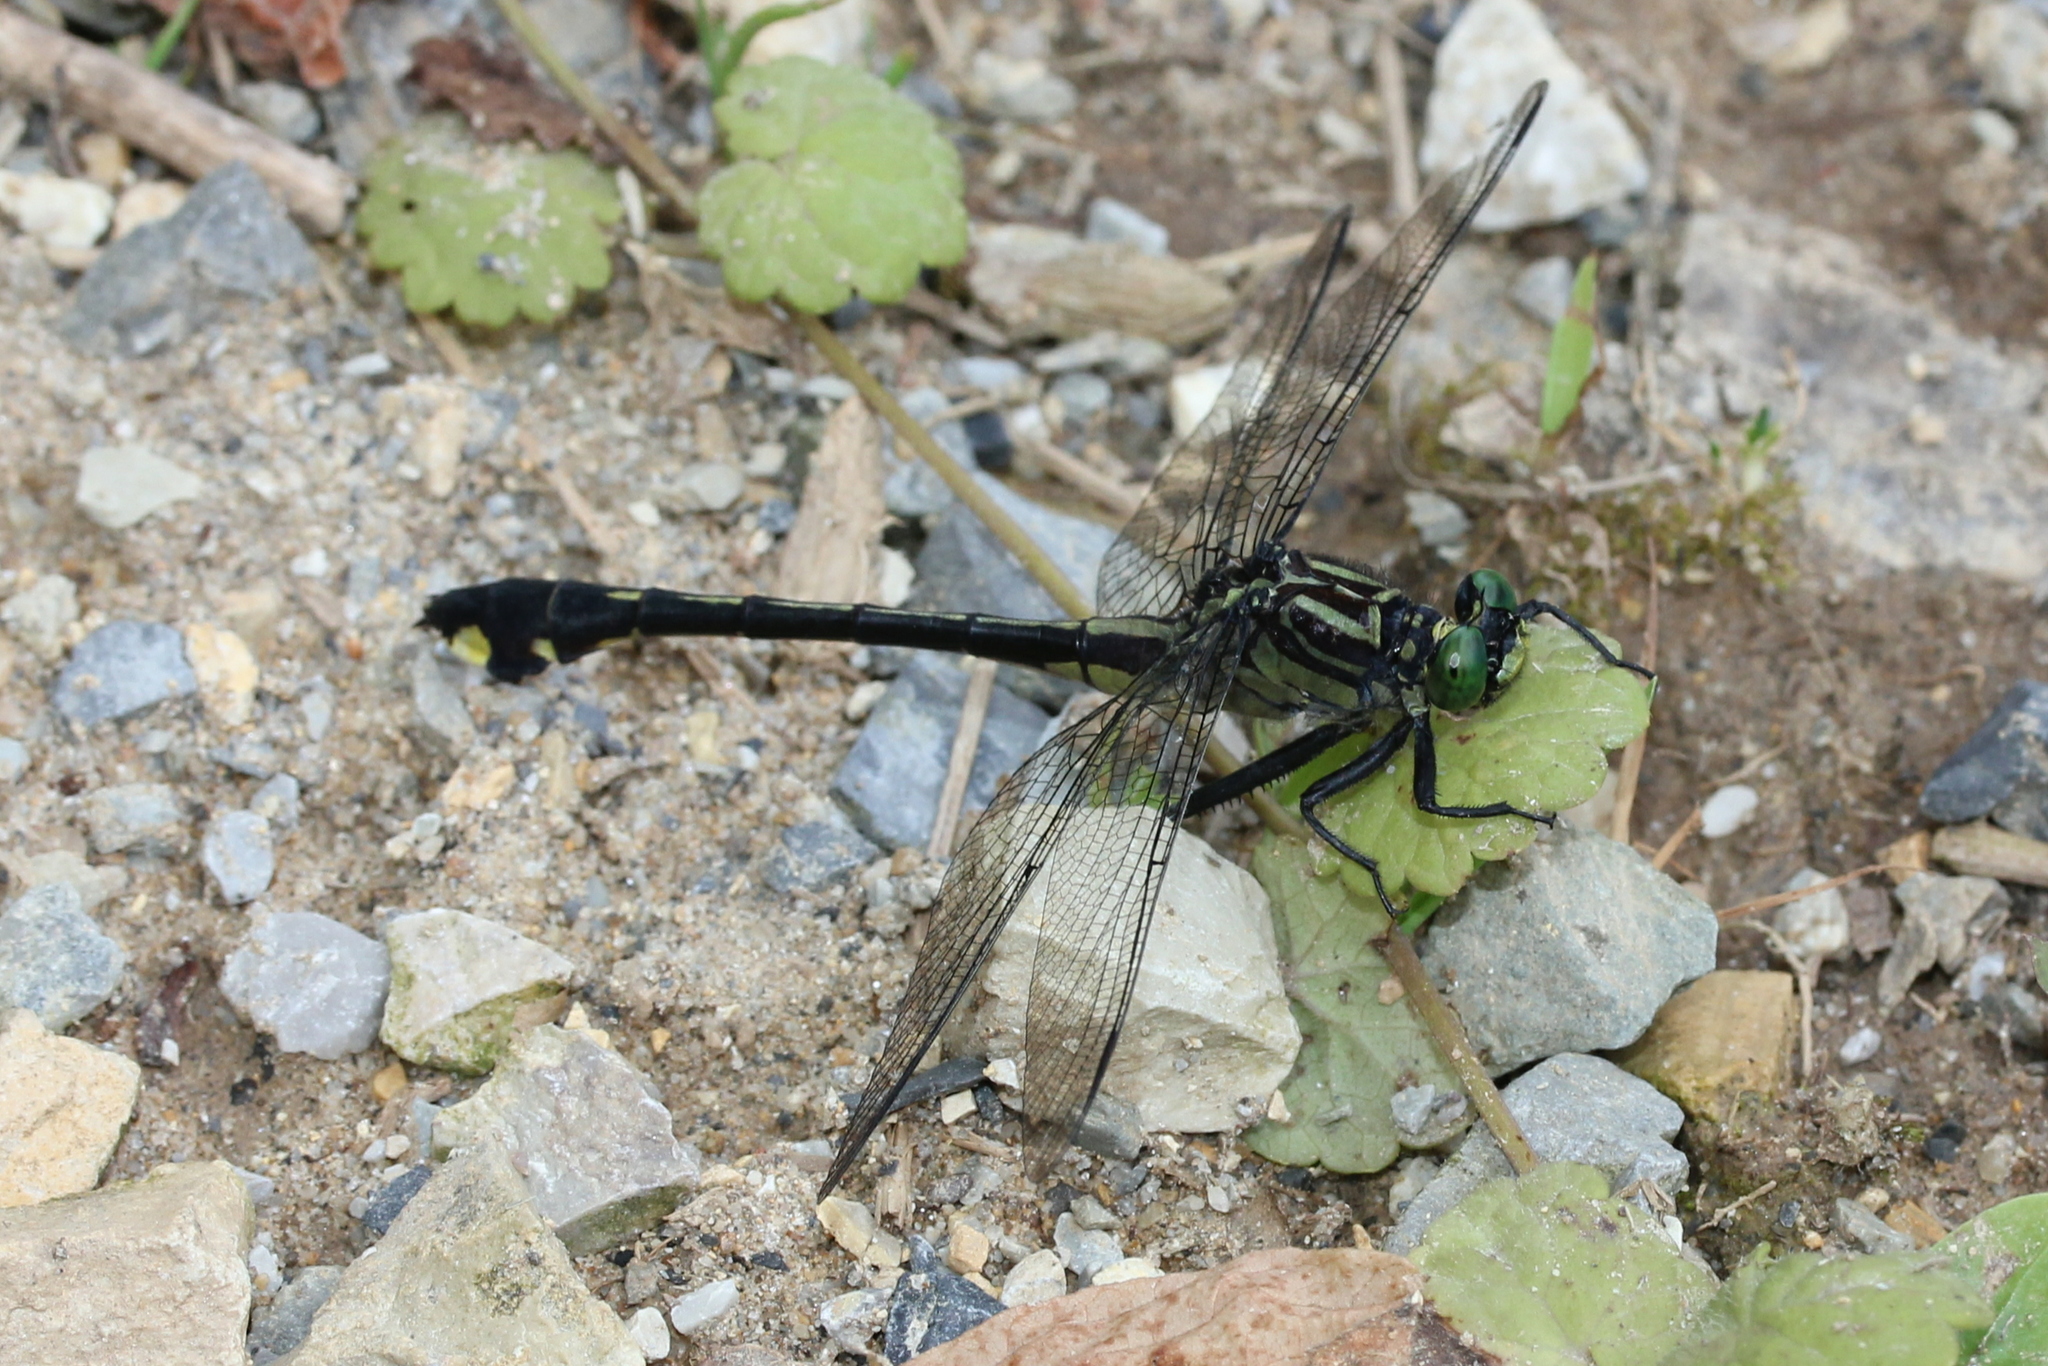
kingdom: Animalia
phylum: Arthropoda
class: Insecta
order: Odonata
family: Gomphidae
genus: Gomphurus
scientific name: Gomphurus vastus
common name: Cobra clubtail
